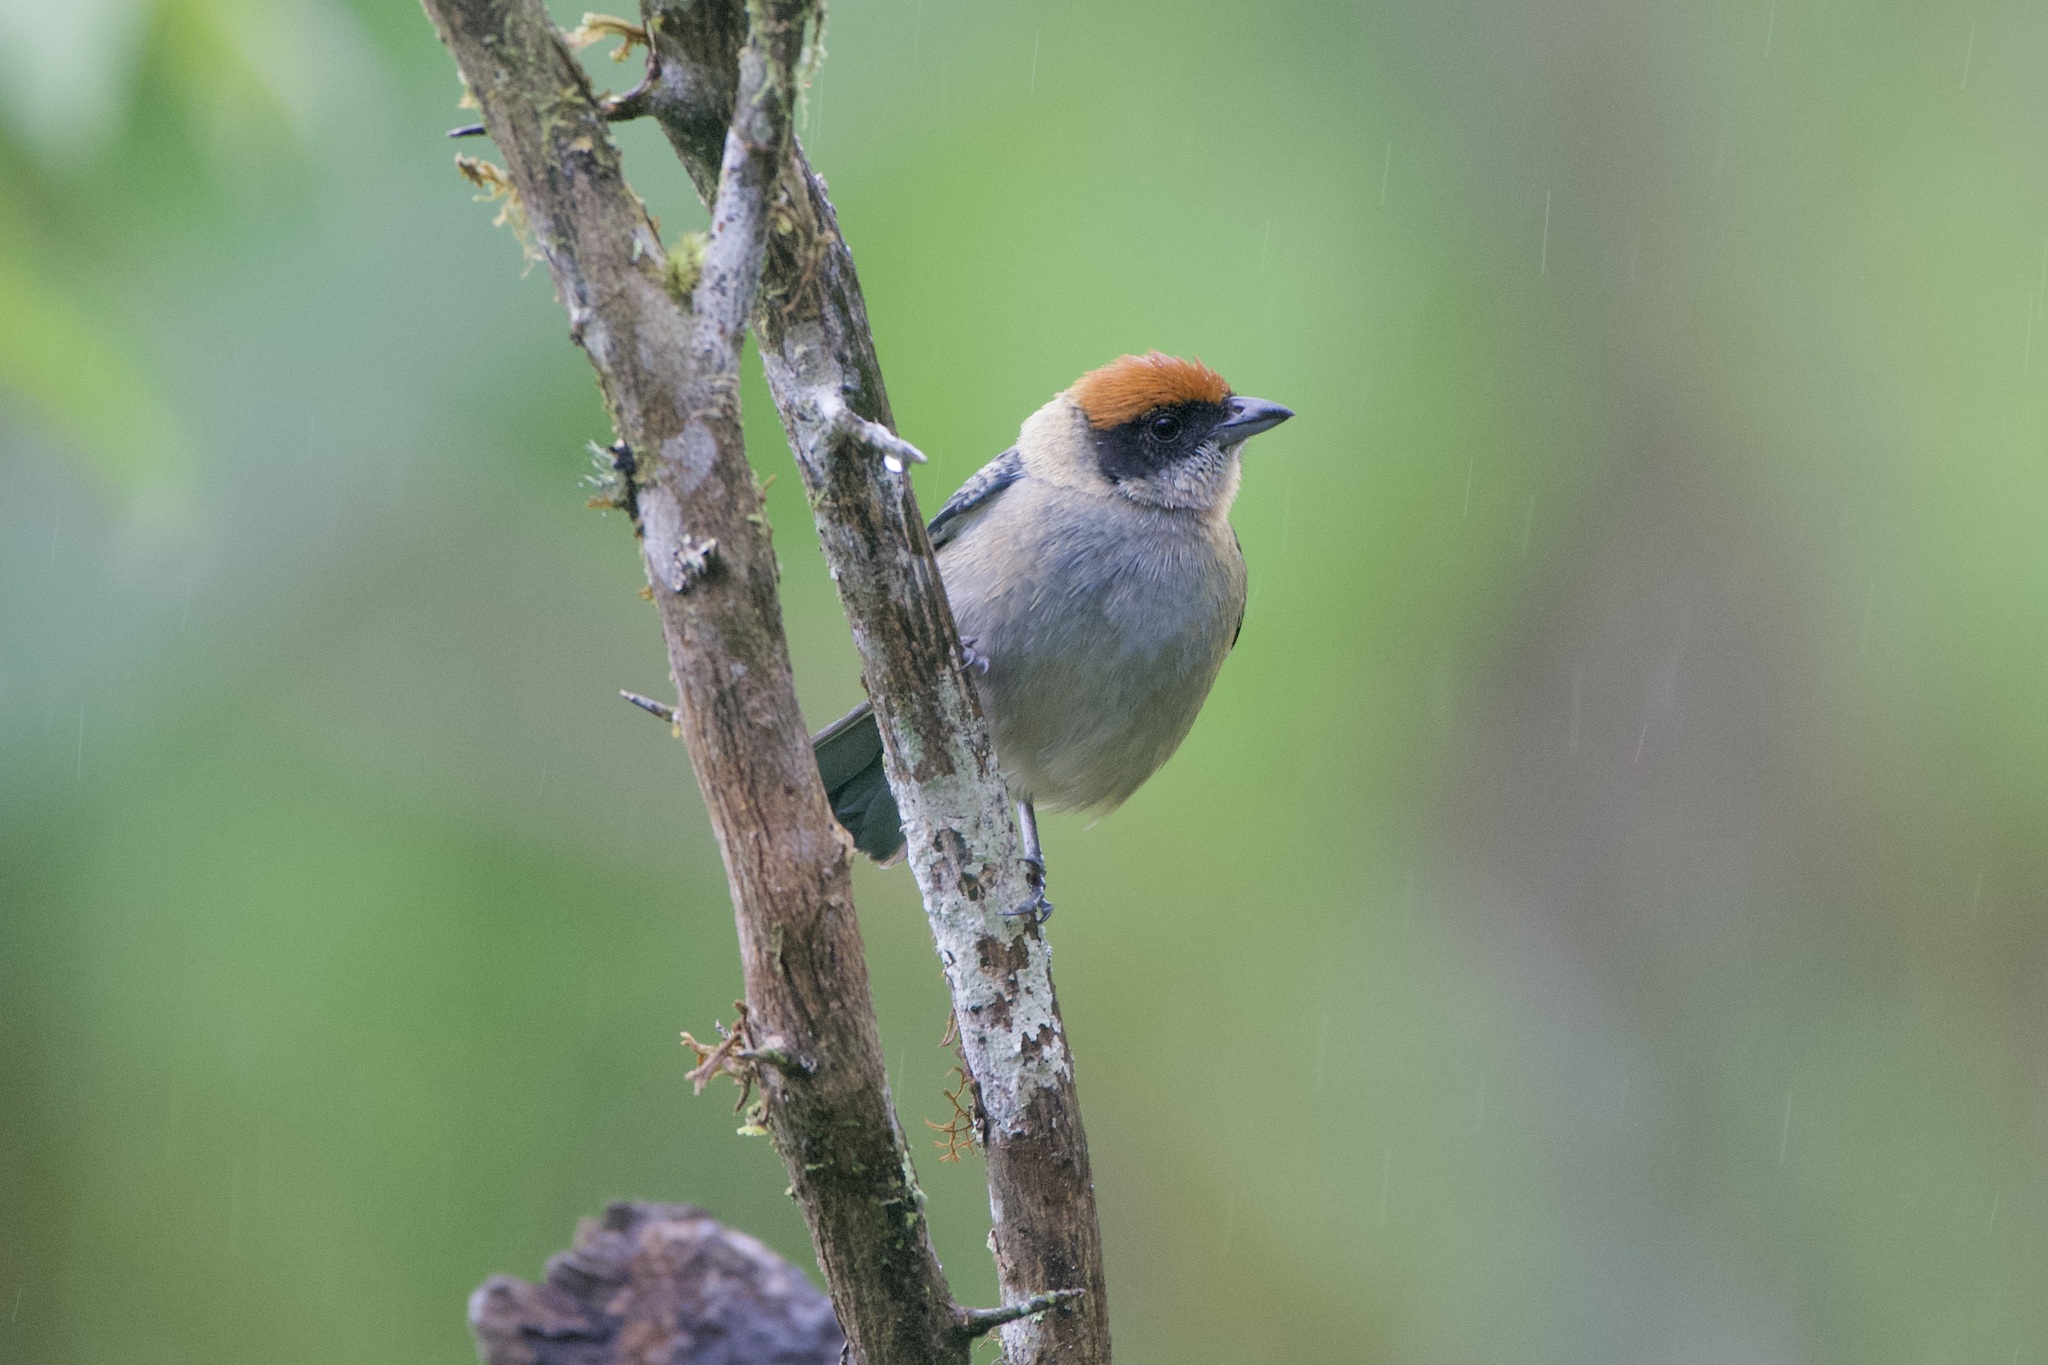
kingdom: Animalia
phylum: Chordata
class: Aves
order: Passeriformes
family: Thraupidae
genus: Stilpnia
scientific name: Stilpnia vitriolina
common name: Scrub tanager
